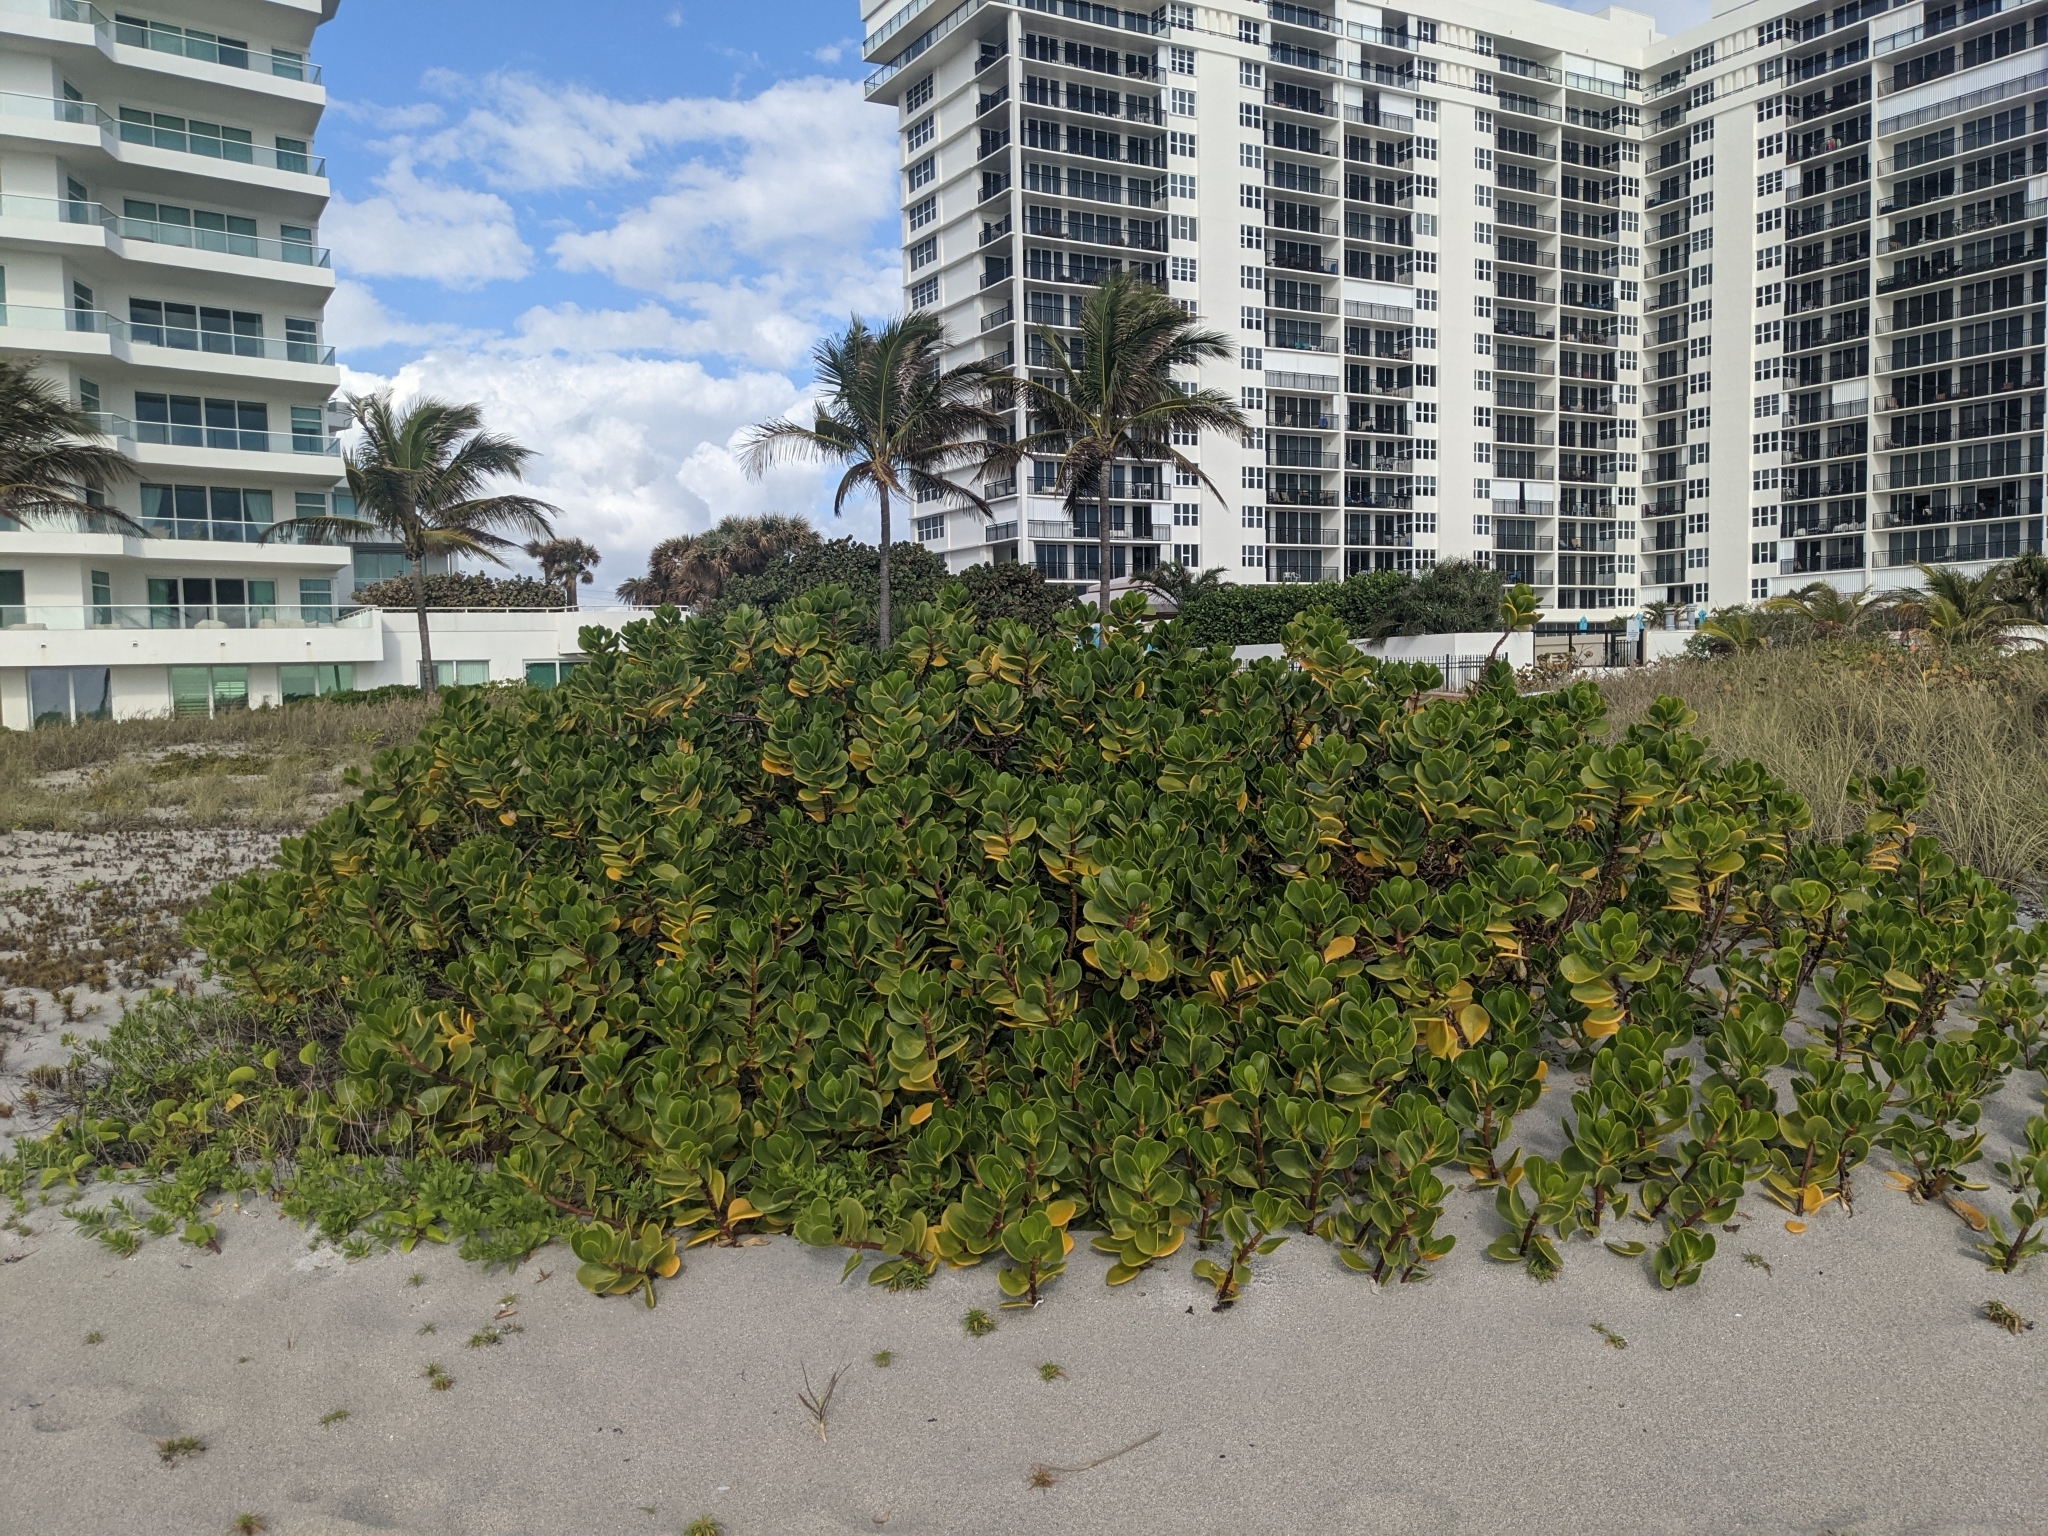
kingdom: Plantae
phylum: Tracheophyta
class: Magnoliopsida
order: Asterales
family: Goodeniaceae
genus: Scaevola
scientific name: Scaevola plumieri
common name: Gull feed
